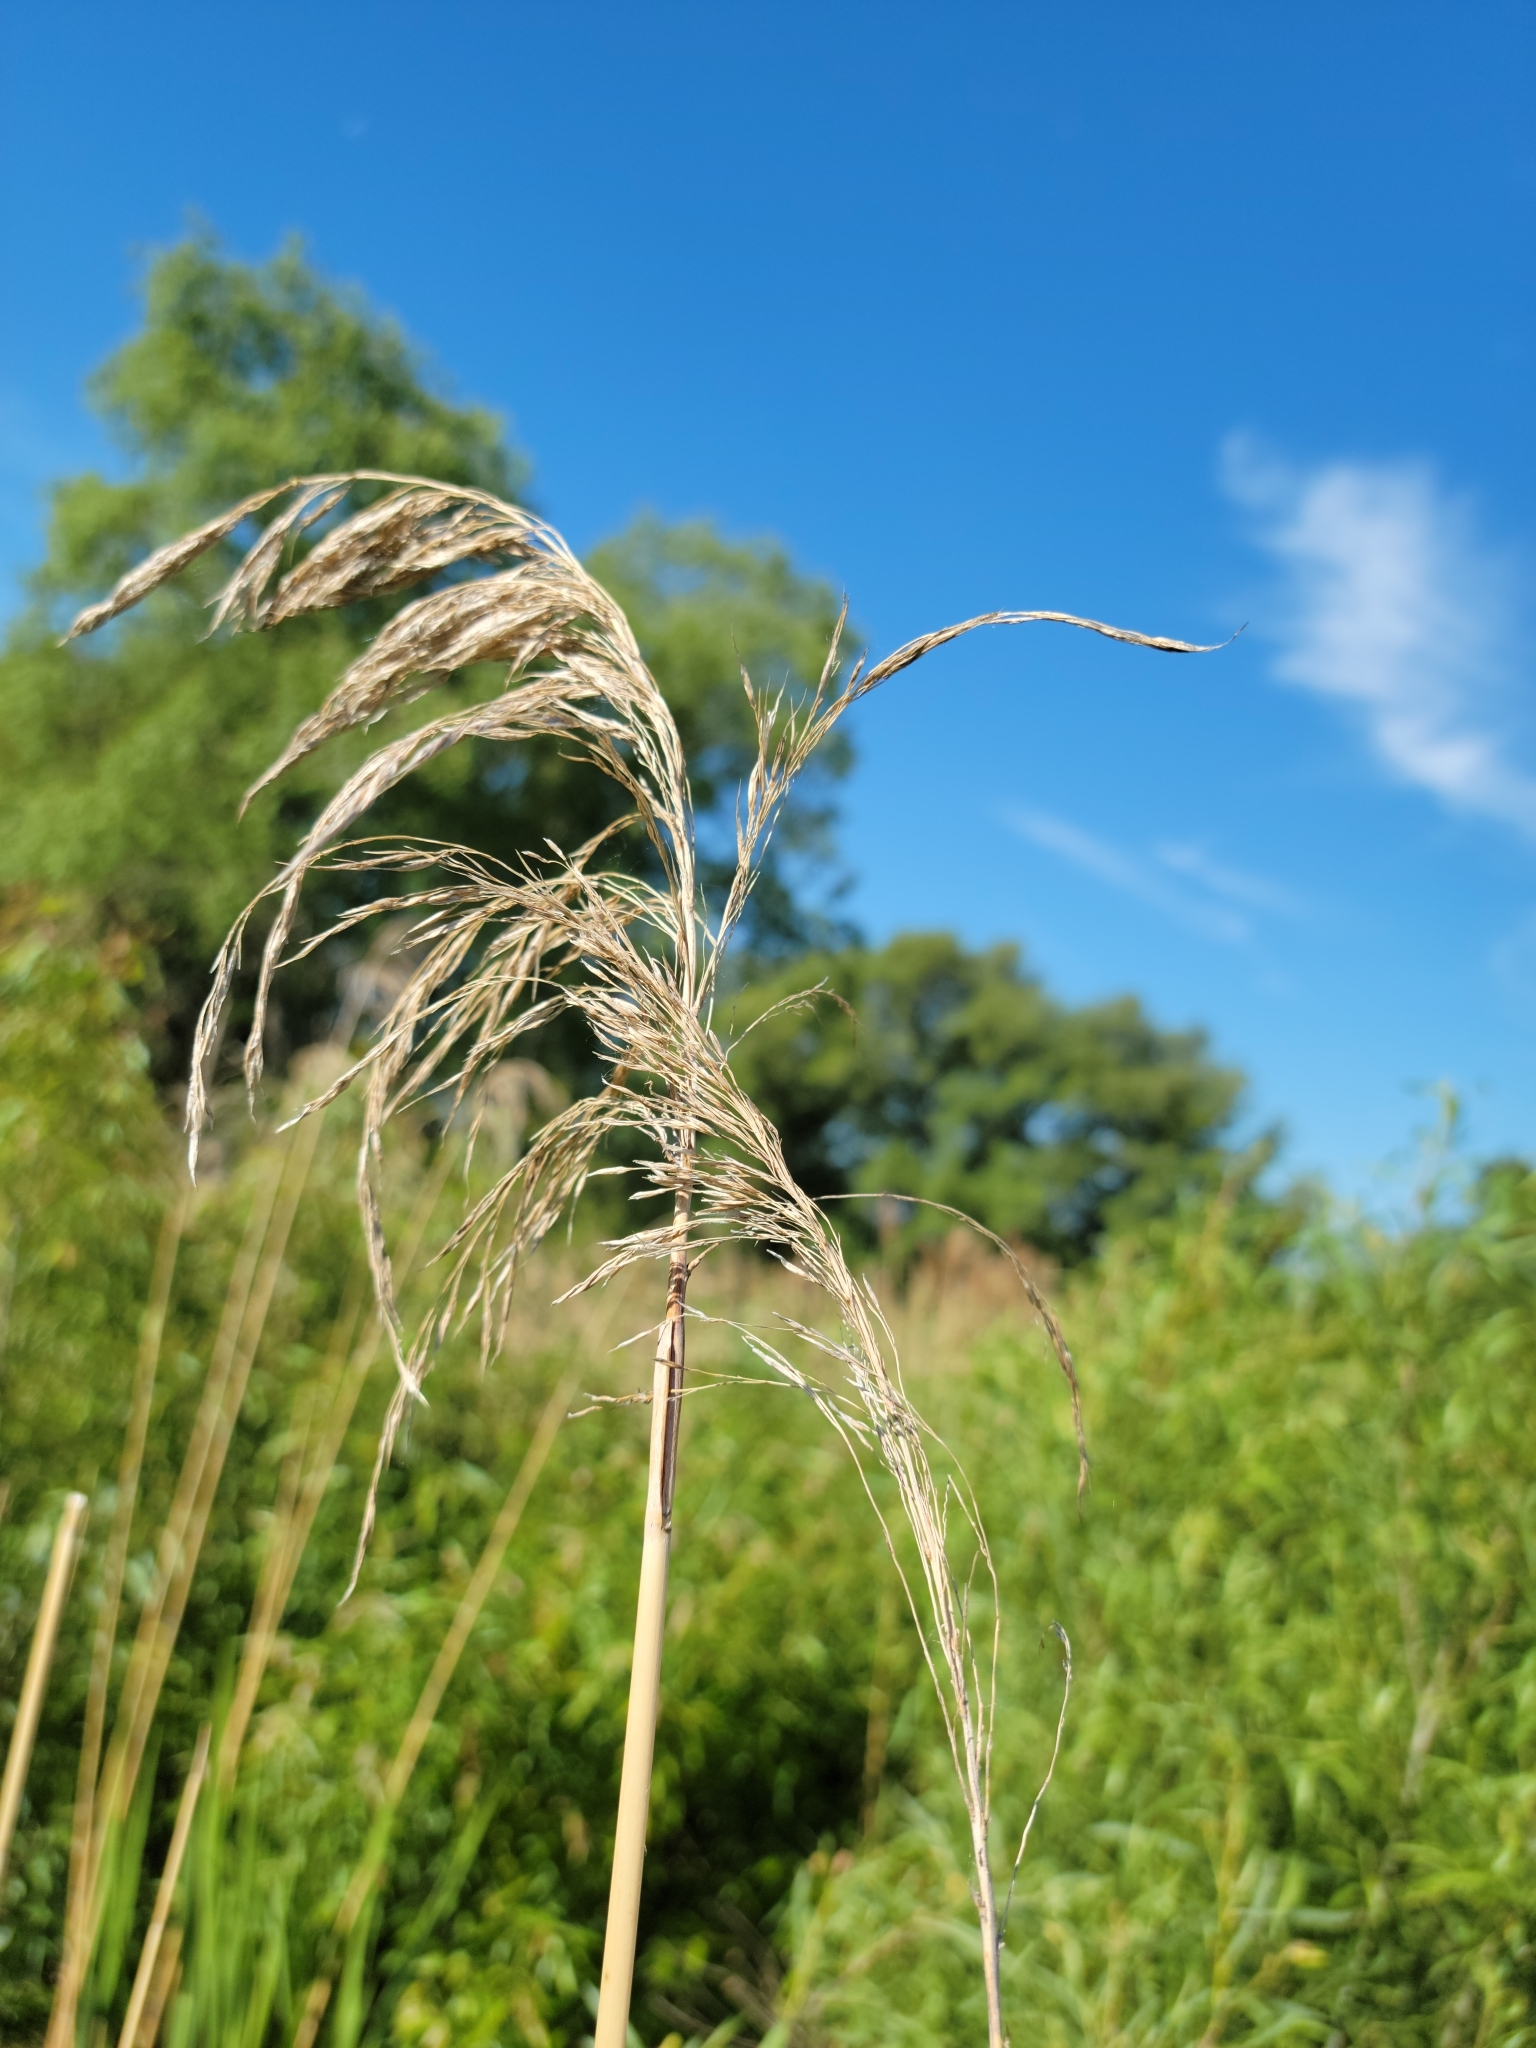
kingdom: Plantae
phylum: Tracheophyta
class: Liliopsida
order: Poales
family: Poaceae
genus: Phalaris
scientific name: Phalaris arundinacea
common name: Reed canary-grass
